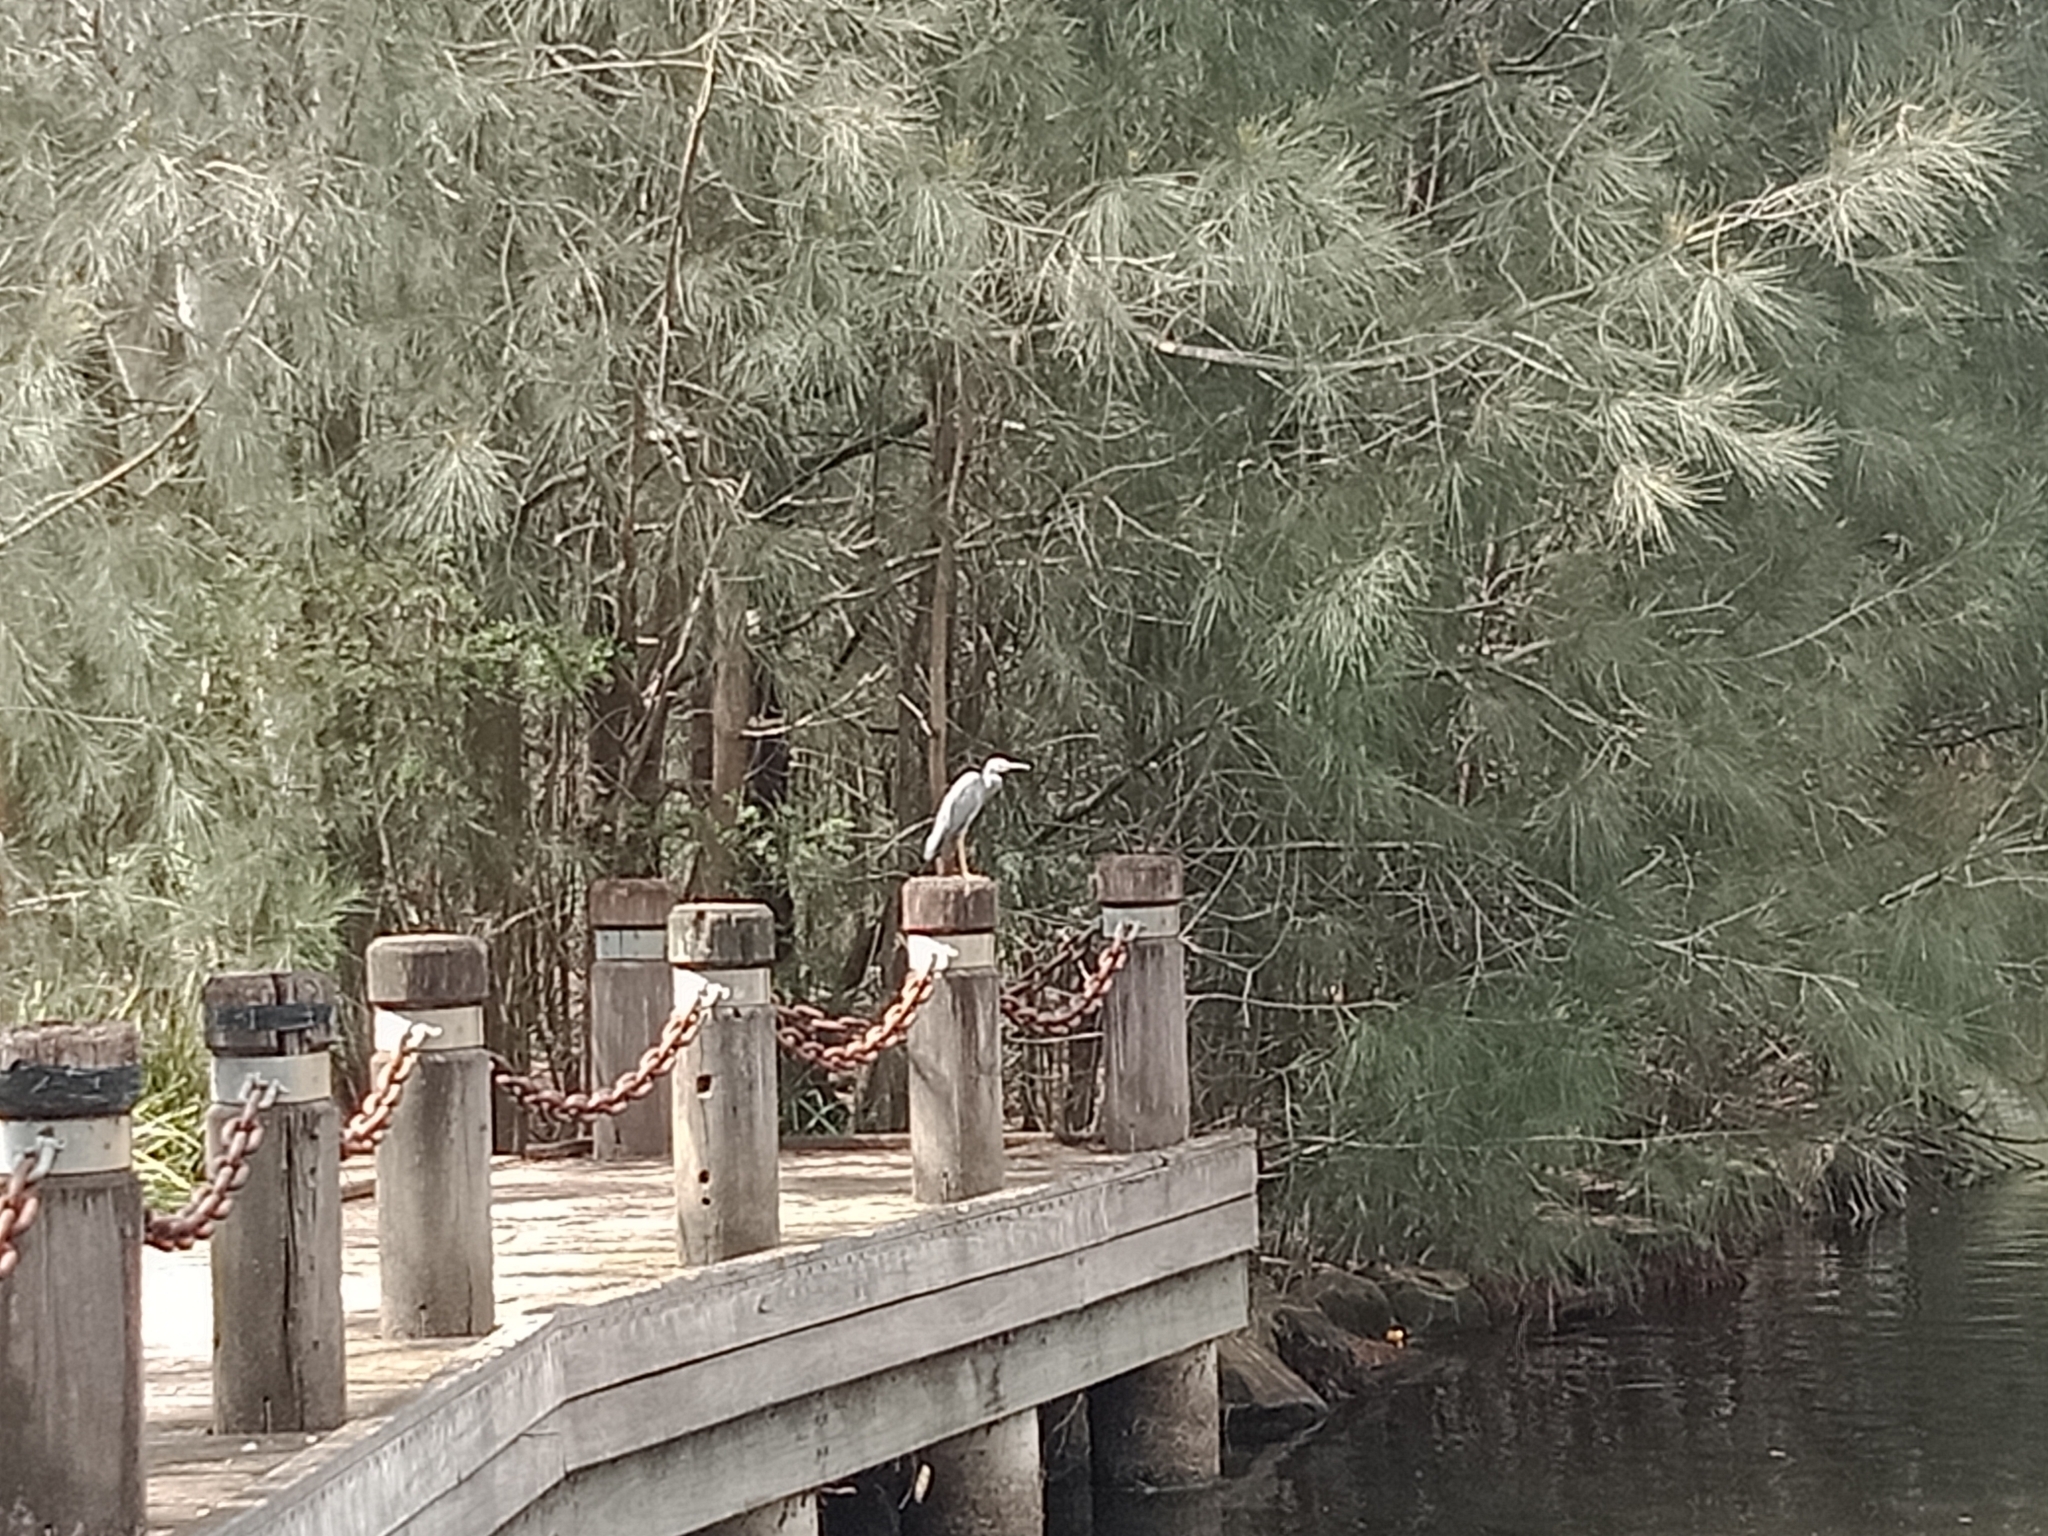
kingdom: Animalia
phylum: Chordata
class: Aves
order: Pelecaniformes
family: Ardeidae
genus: Egretta
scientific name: Egretta novaehollandiae
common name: White-faced heron
